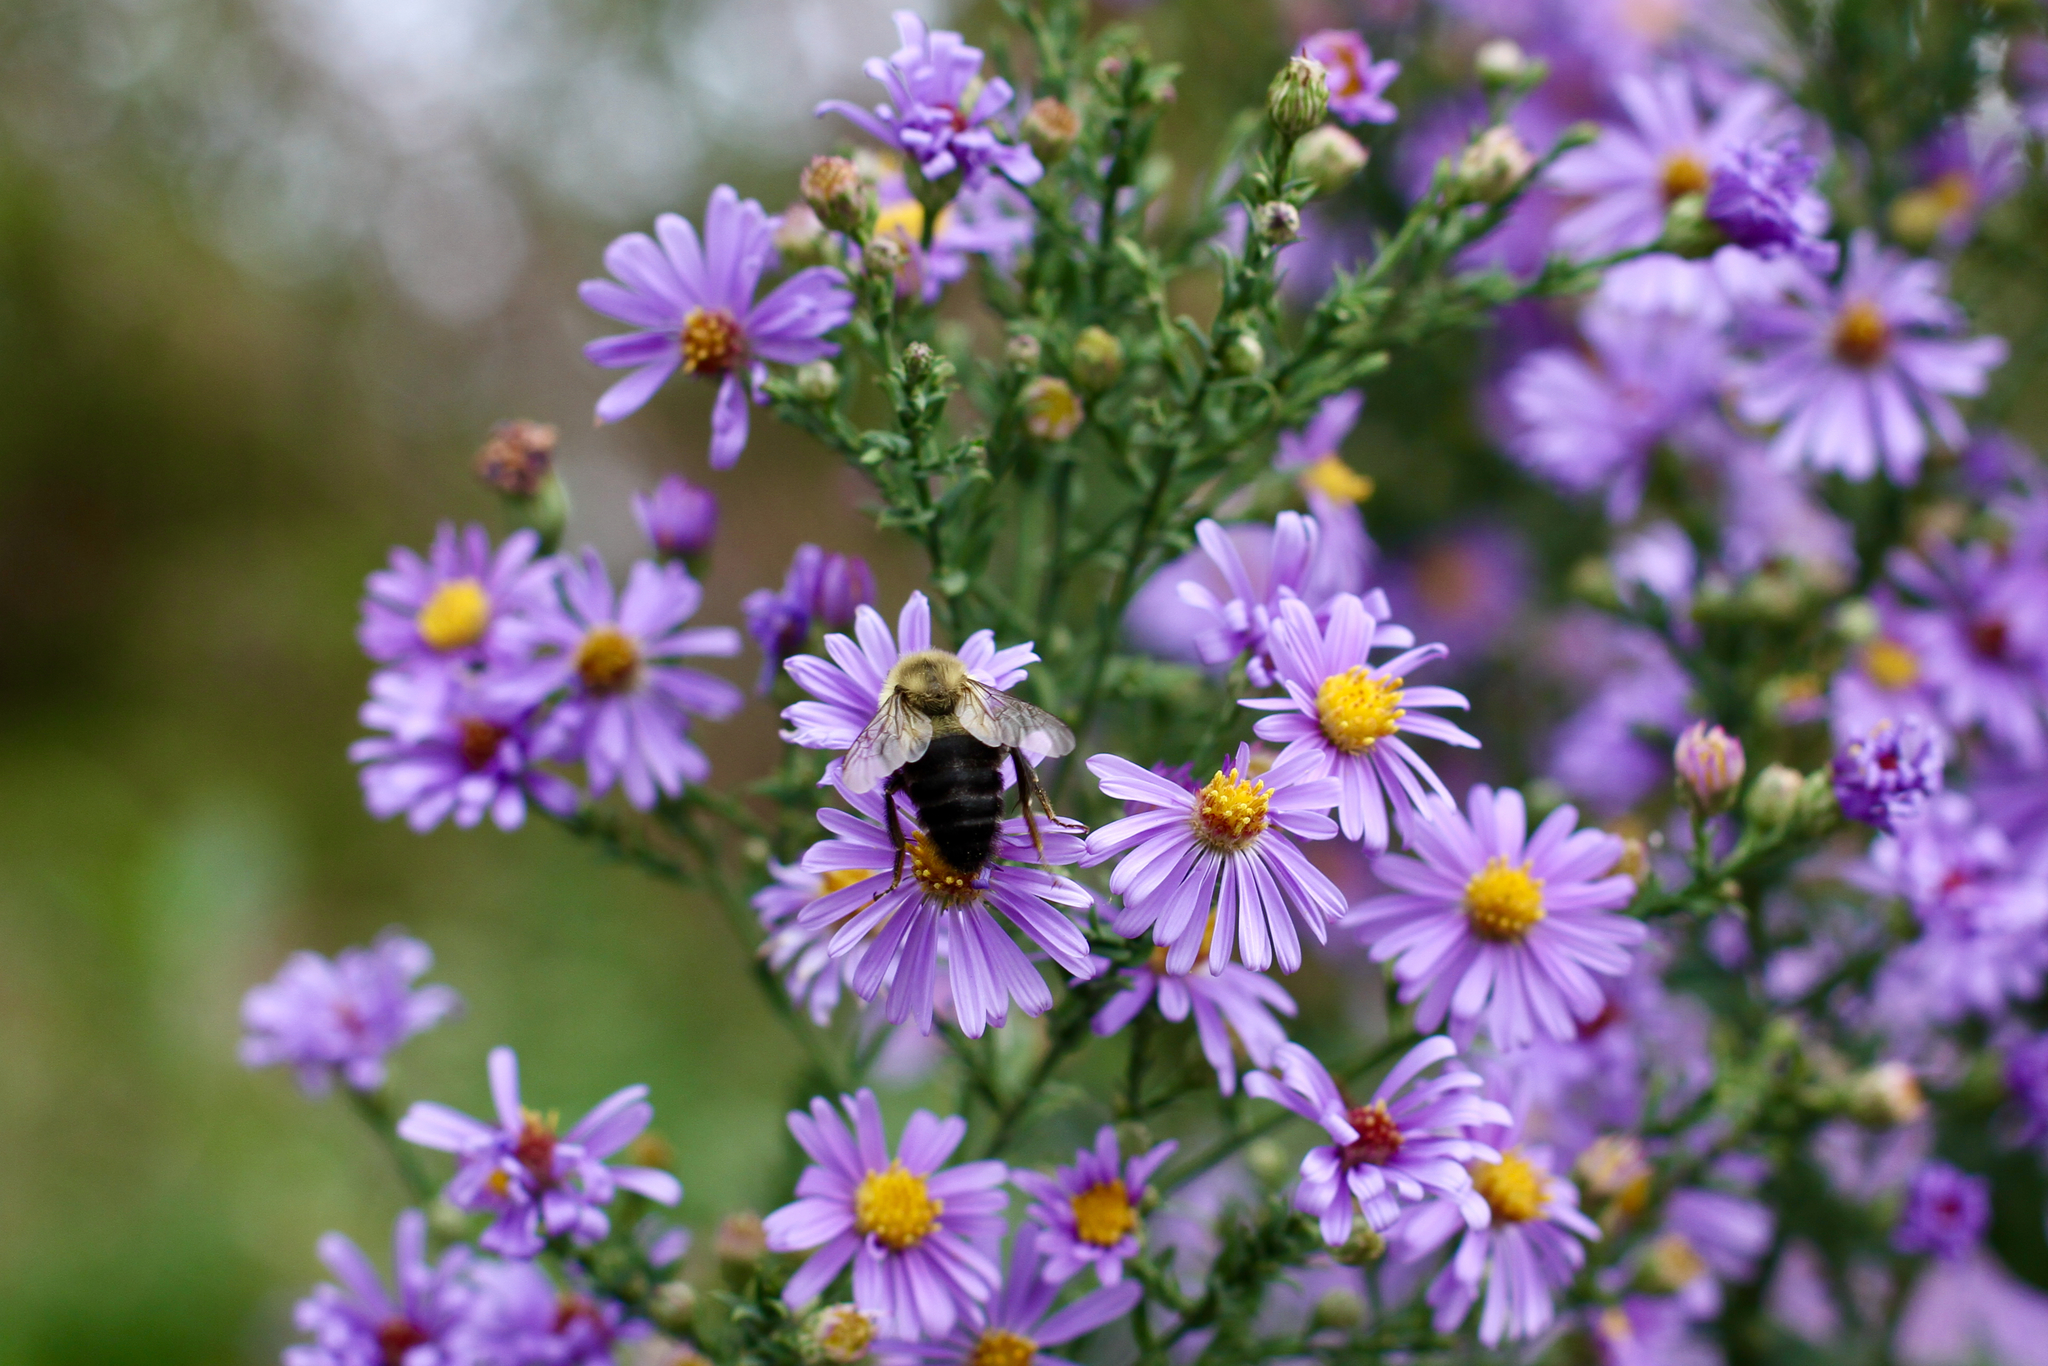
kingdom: Animalia
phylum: Arthropoda
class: Insecta
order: Hymenoptera
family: Apidae
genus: Bombus
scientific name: Bombus impatiens
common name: Common eastern bumble bee
